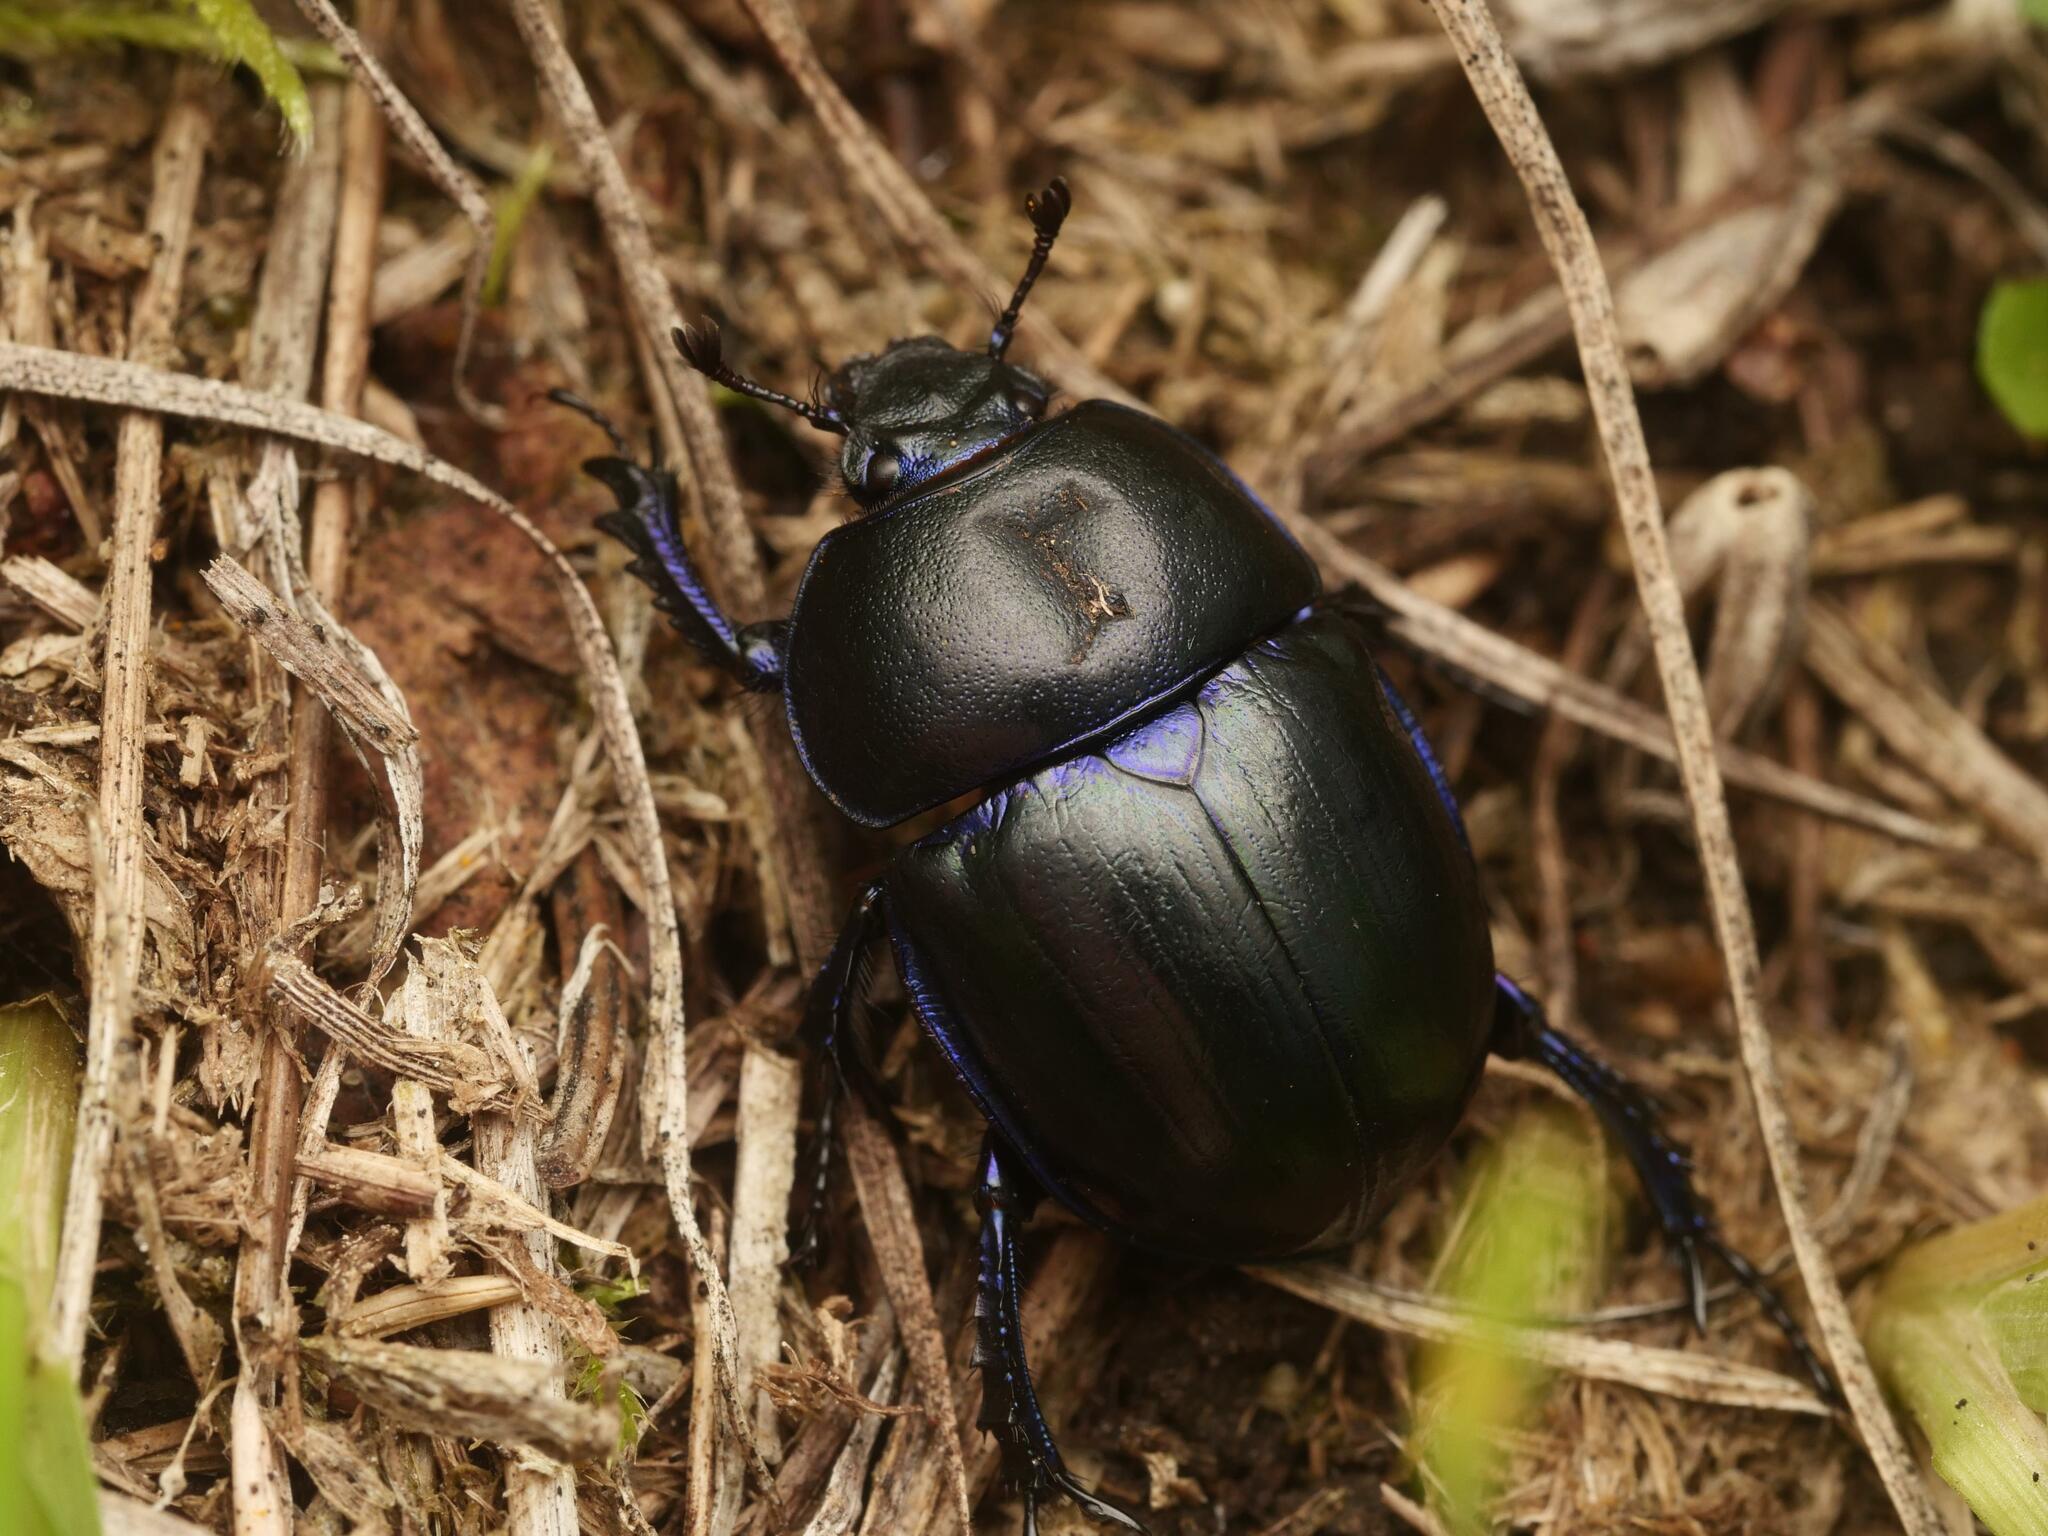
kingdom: Animalia
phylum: Arthropoda
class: Insecta
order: Coleoptera
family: Geotrupidae
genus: Trypocopris
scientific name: Trypocopris vernalis
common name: Spring dumbledor
